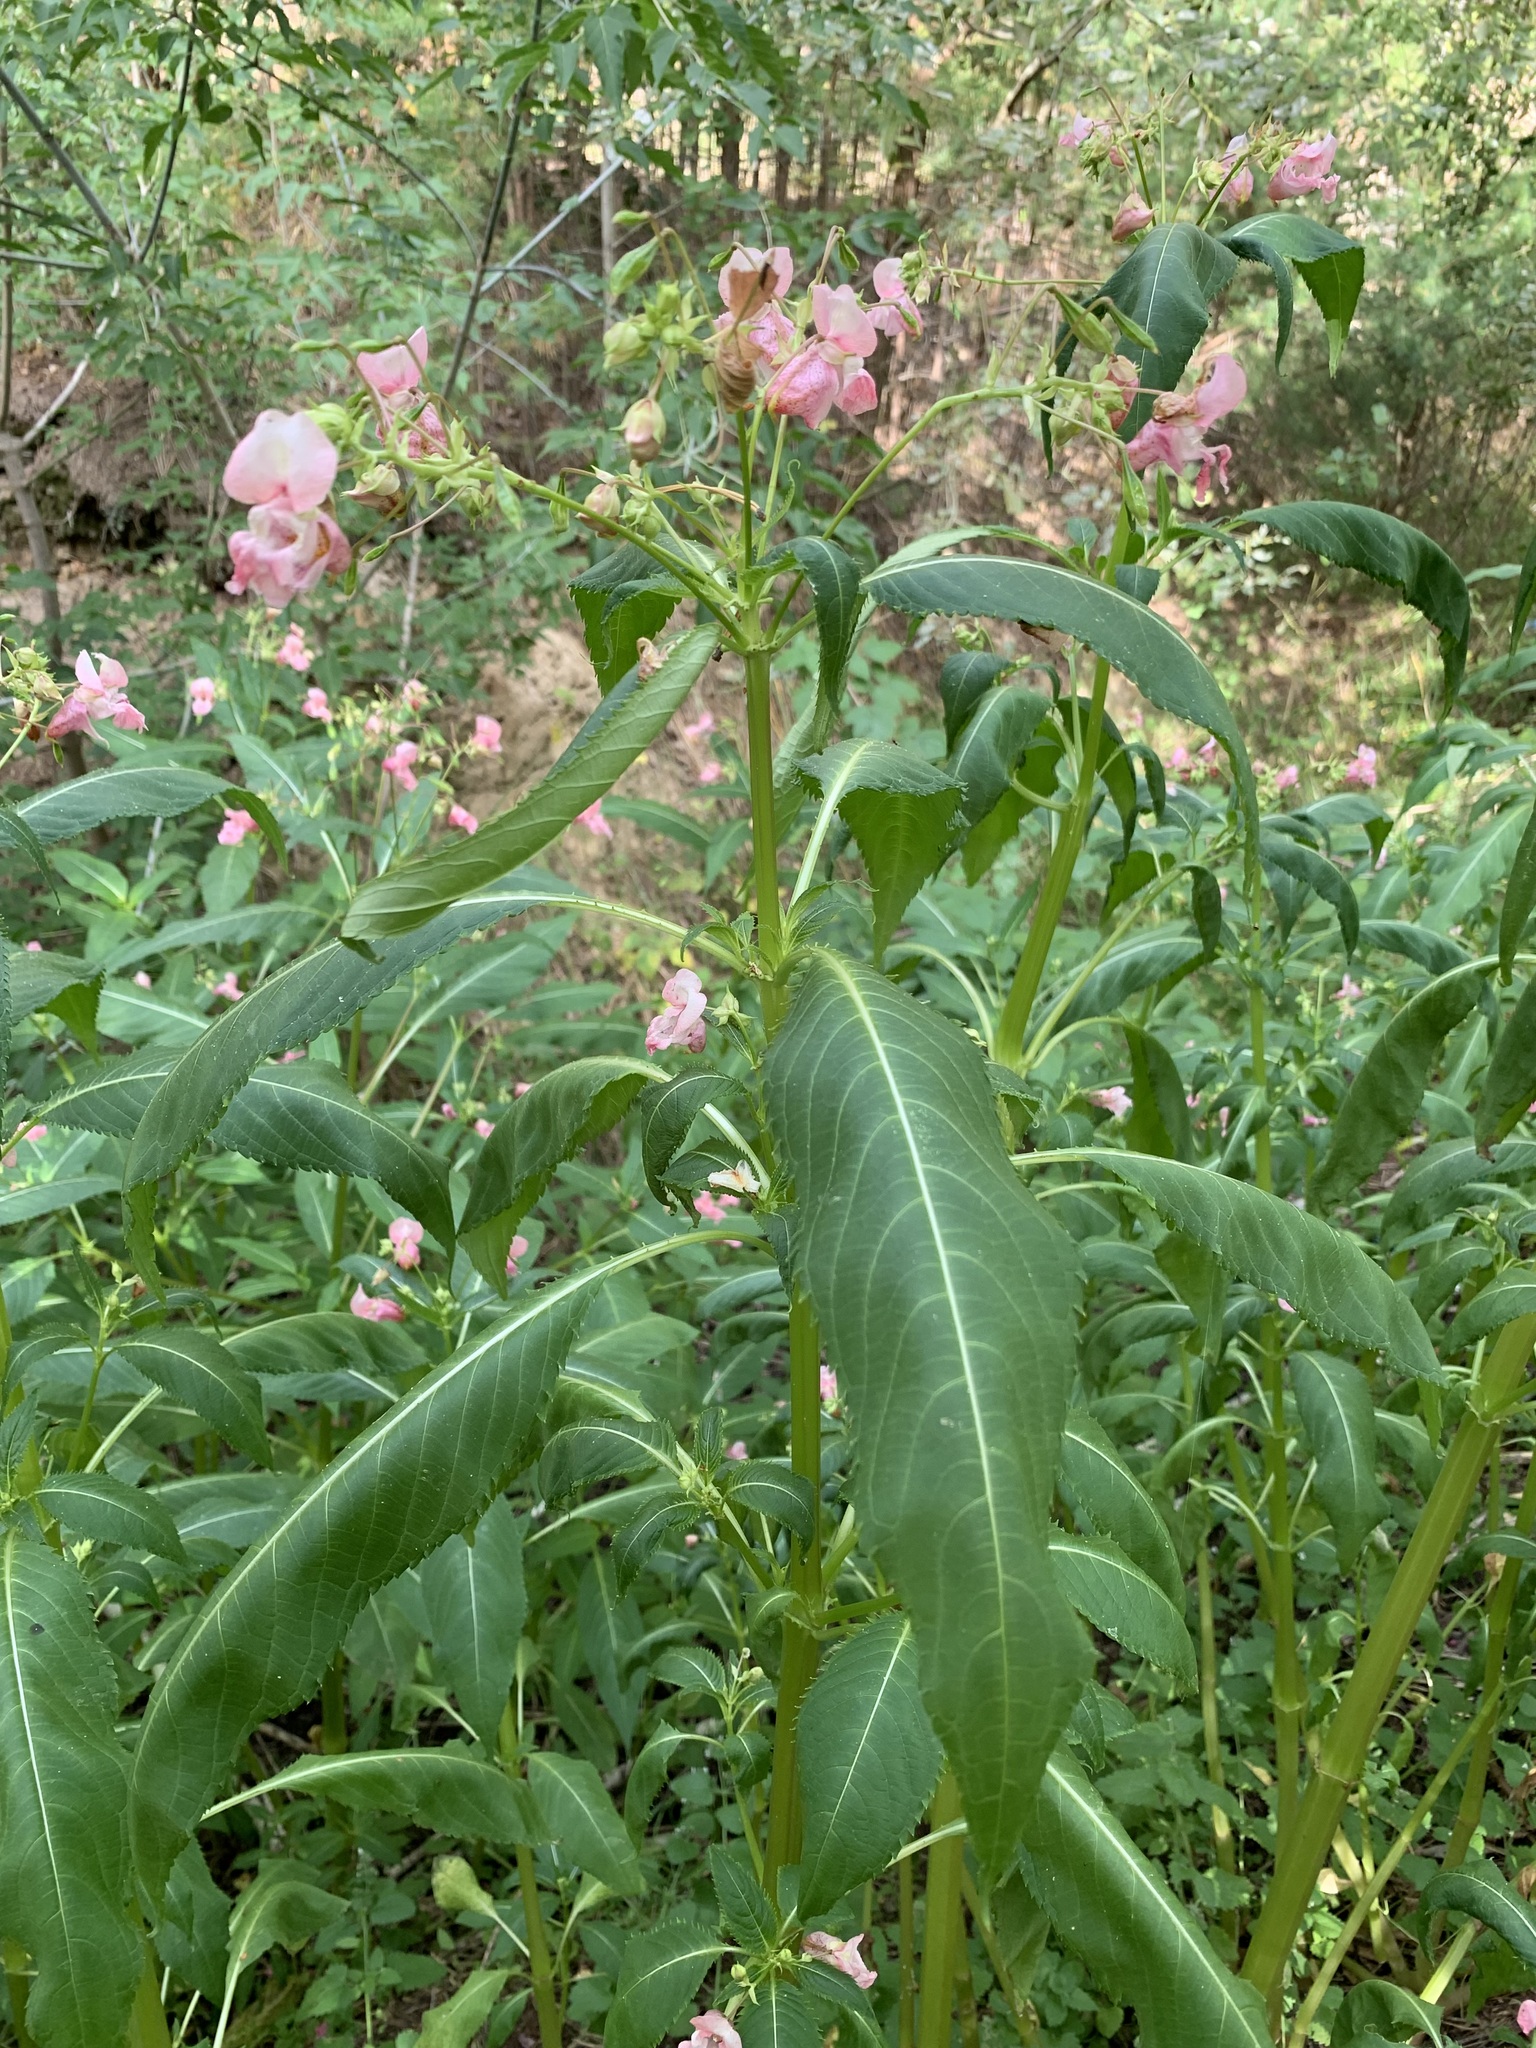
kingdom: Plantae
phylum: Tracheophyta
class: Magnoliopsida
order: Ericales
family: Balsaminaceae
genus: Impatiens
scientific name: Impatiens glandulifera
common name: Himalayan balsam
